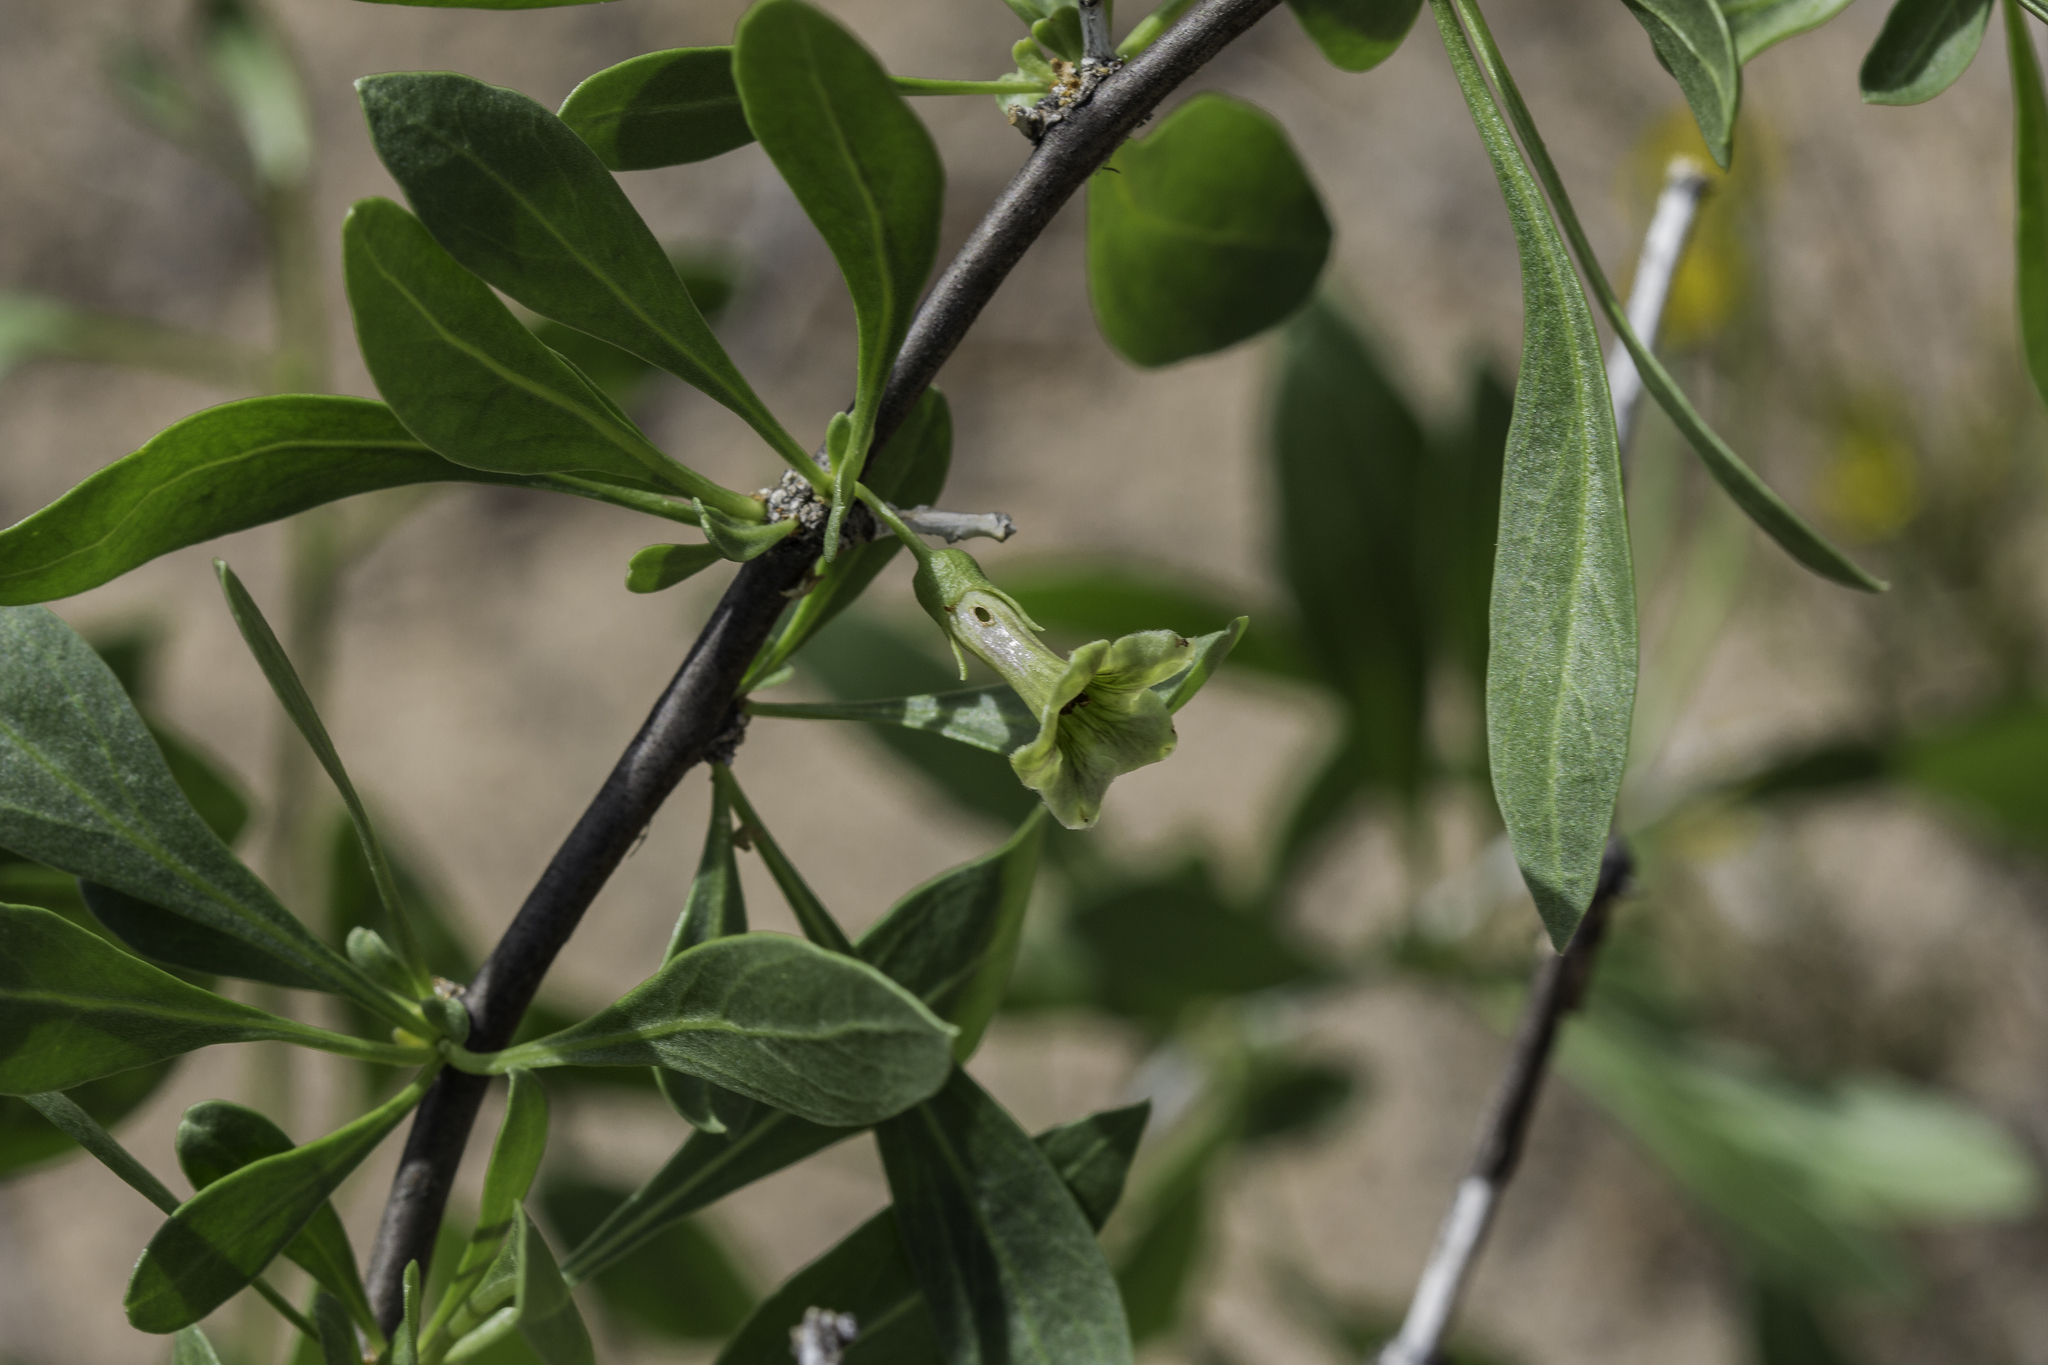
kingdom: Plantae
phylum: Tracheophyta
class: Magnoliopsida
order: Solanales
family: Solanaceae
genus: Lycium
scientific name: Lycium pallidum
